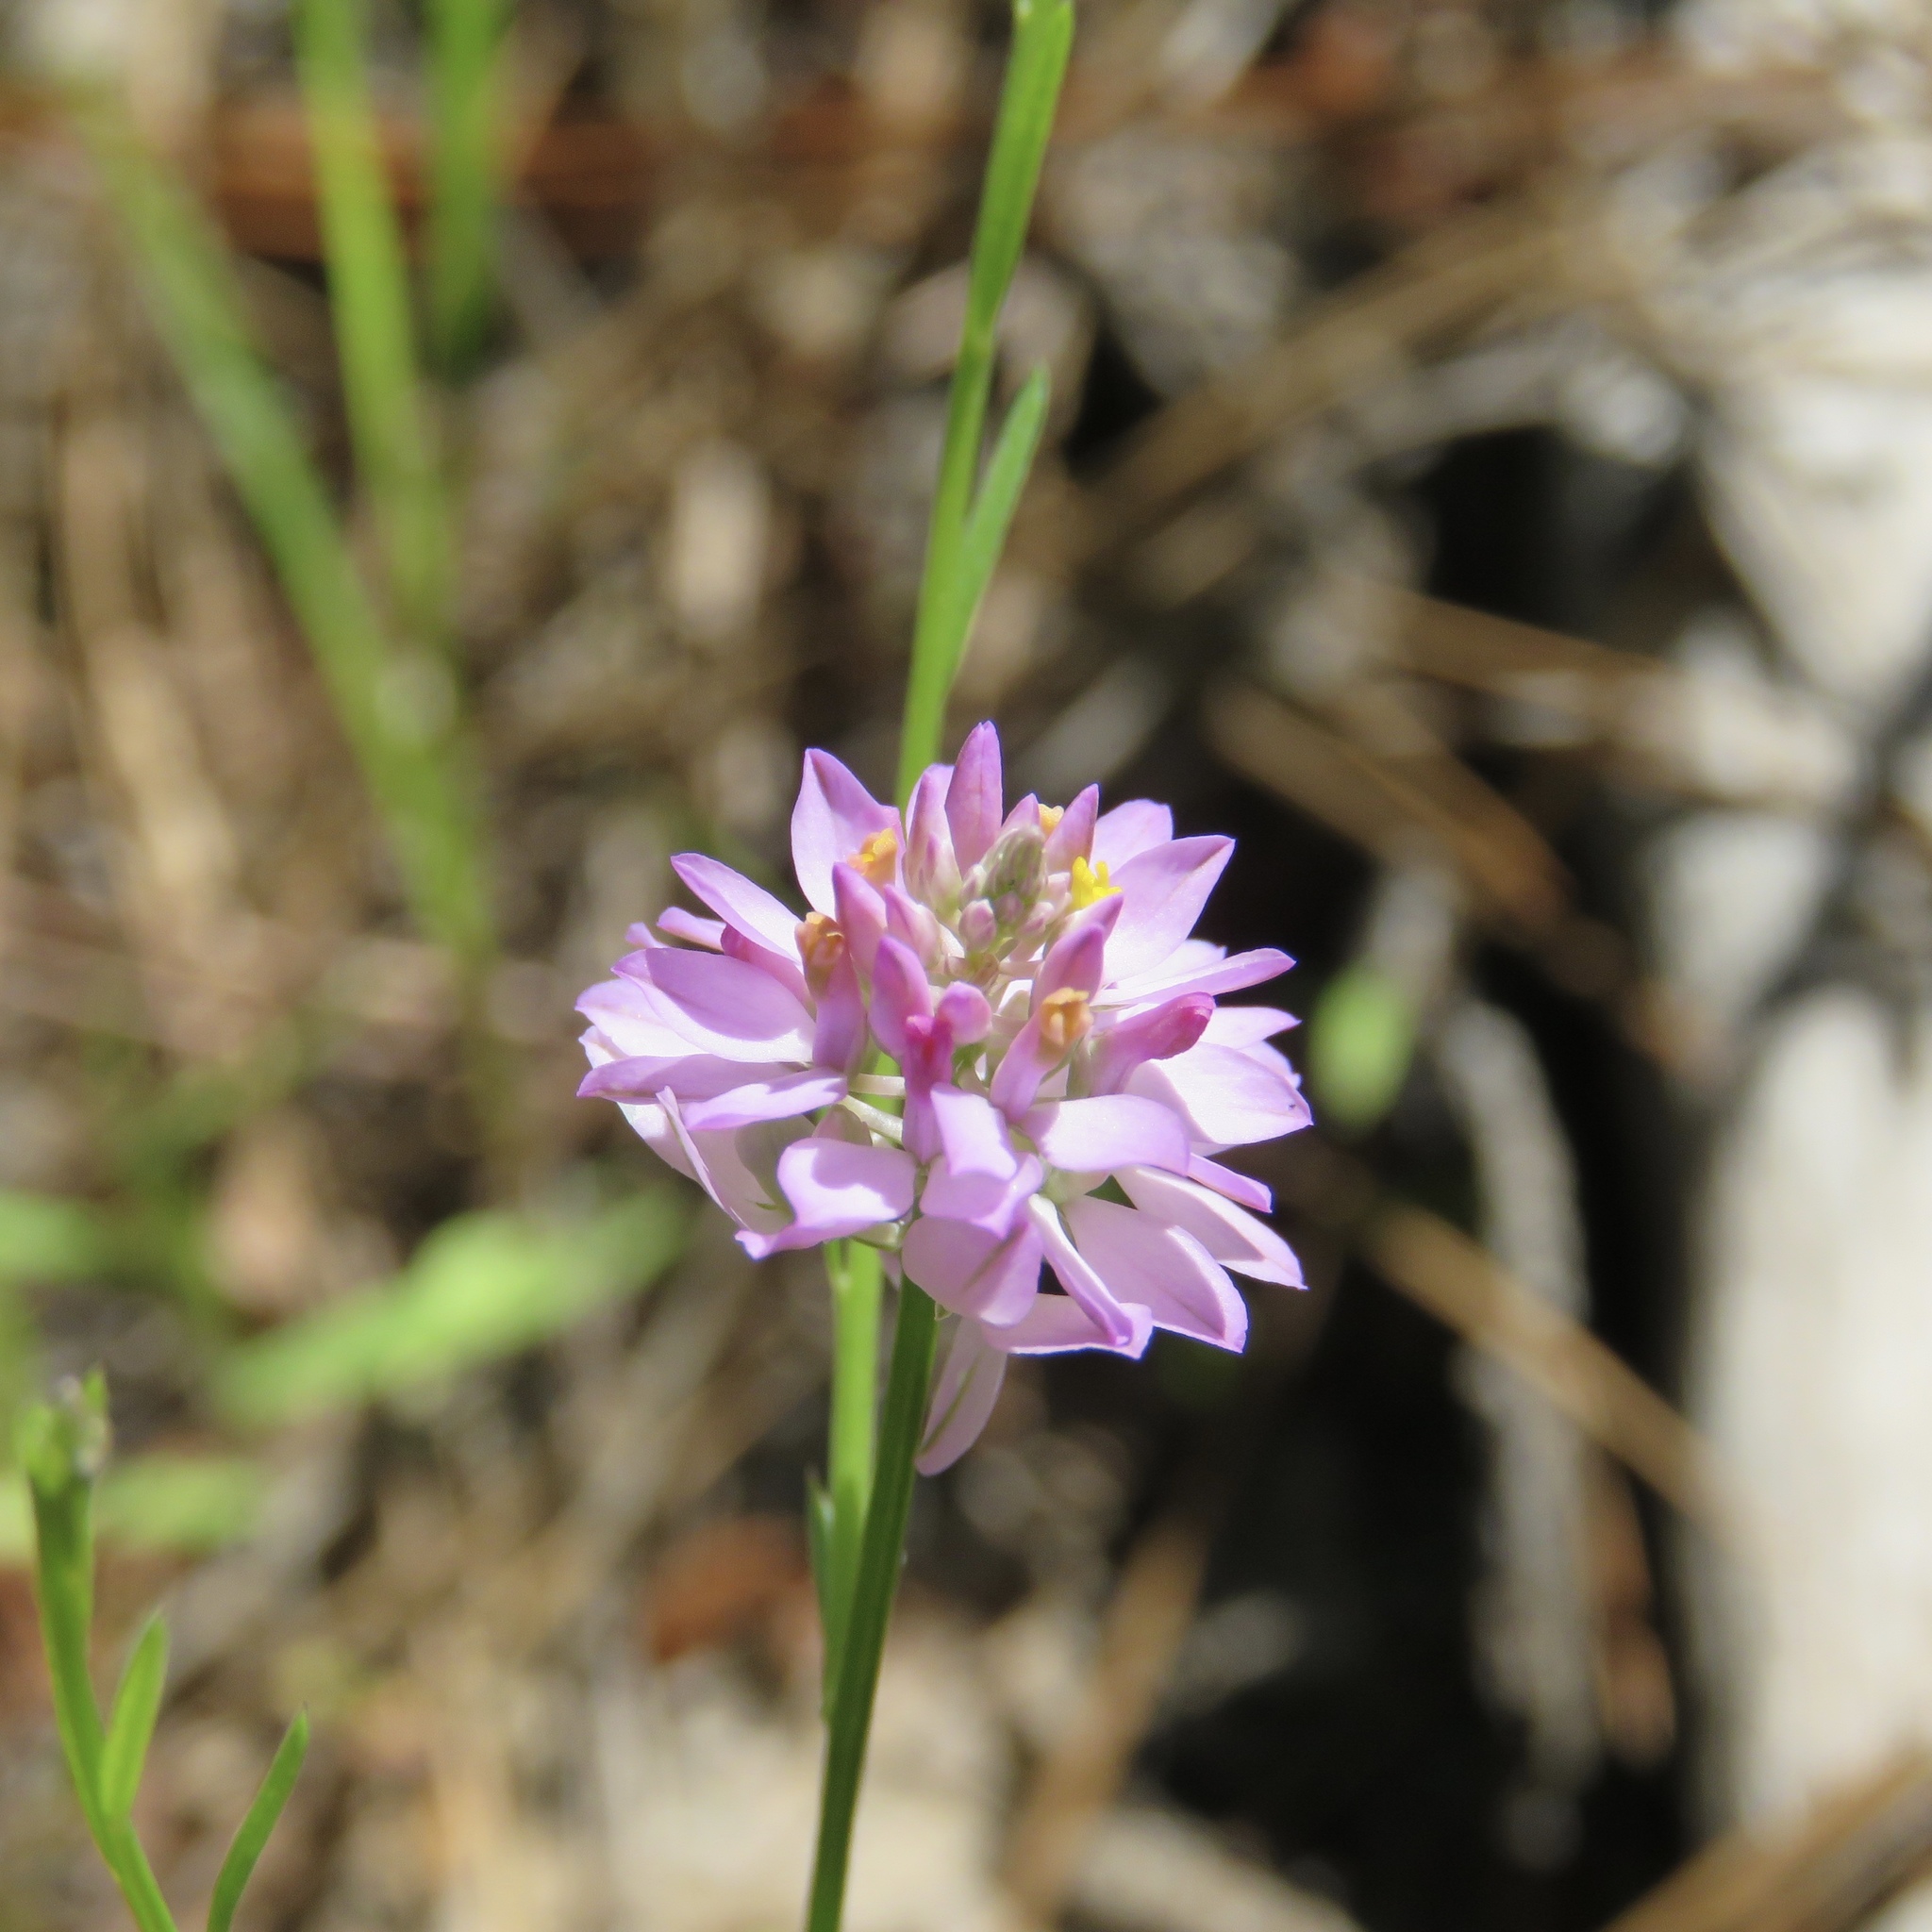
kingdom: Plantae
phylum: Tracheophyta
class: Magnoliopsida
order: Fabales
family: Polygalaceae
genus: Polygala
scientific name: Polygala mariana
